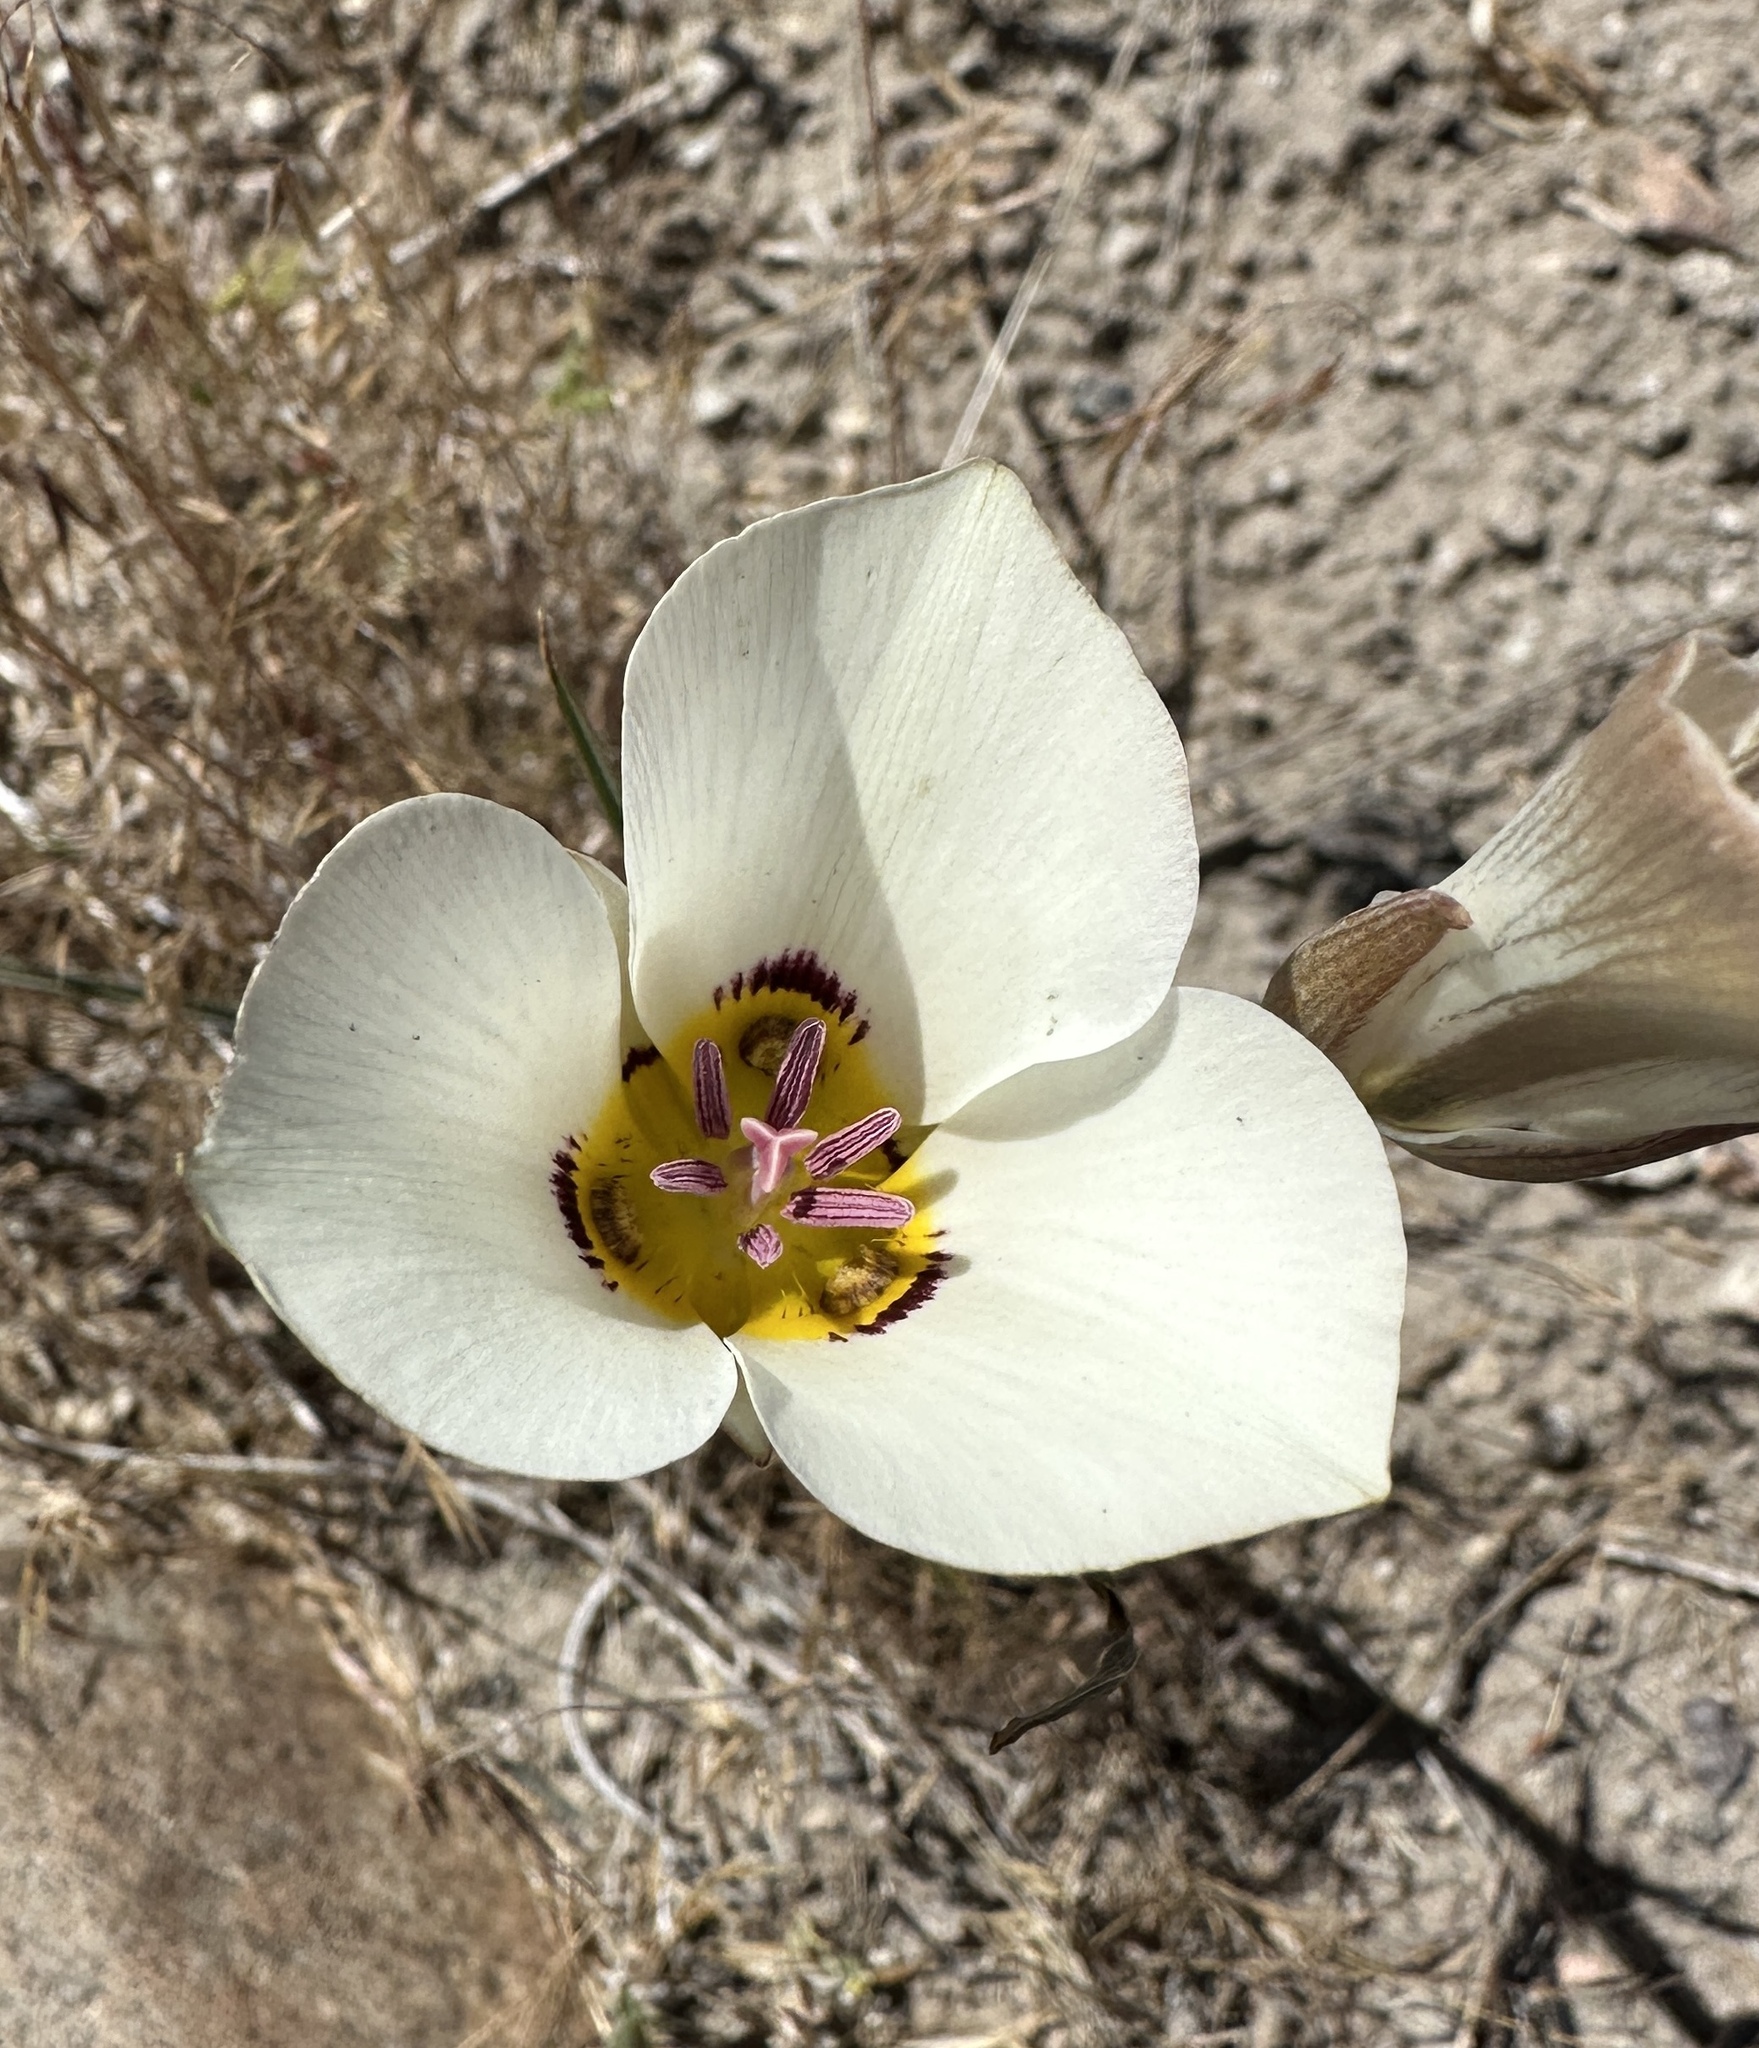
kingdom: Plantae
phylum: Tracheophyta
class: Liliopsida
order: Liliales
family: Liliaceae
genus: Calochortus
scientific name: Calochortus bruneaunis
